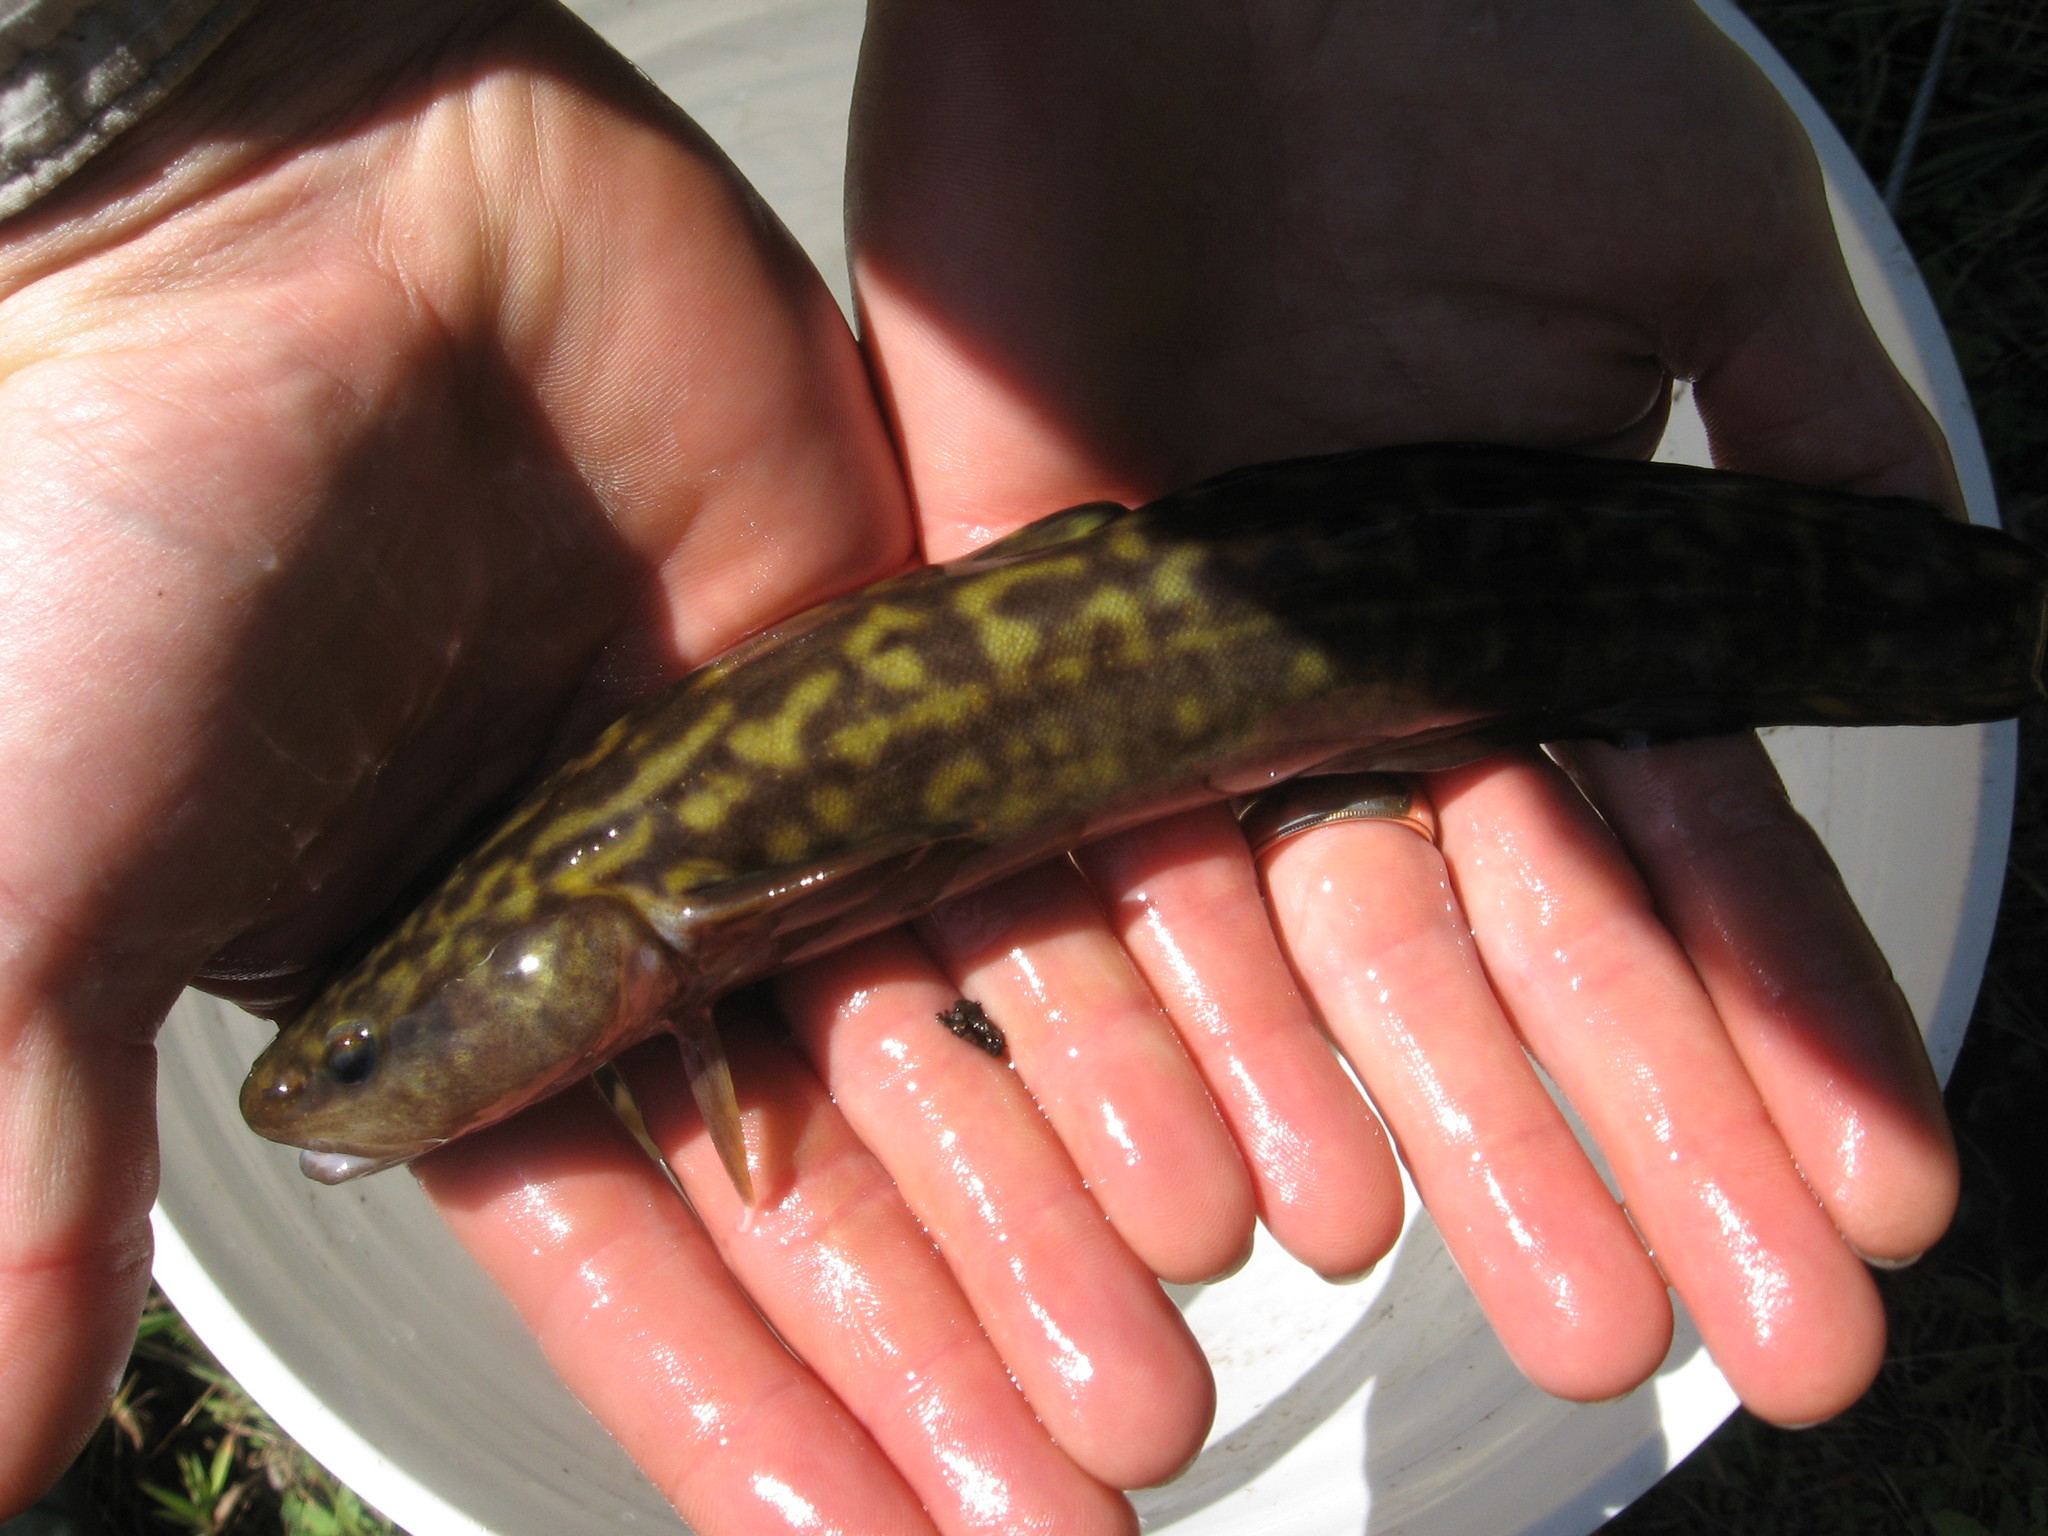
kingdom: Animalia
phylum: Chordata
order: Gadiformes
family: Lotidae
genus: Lota
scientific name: Lota lota
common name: Burbot
